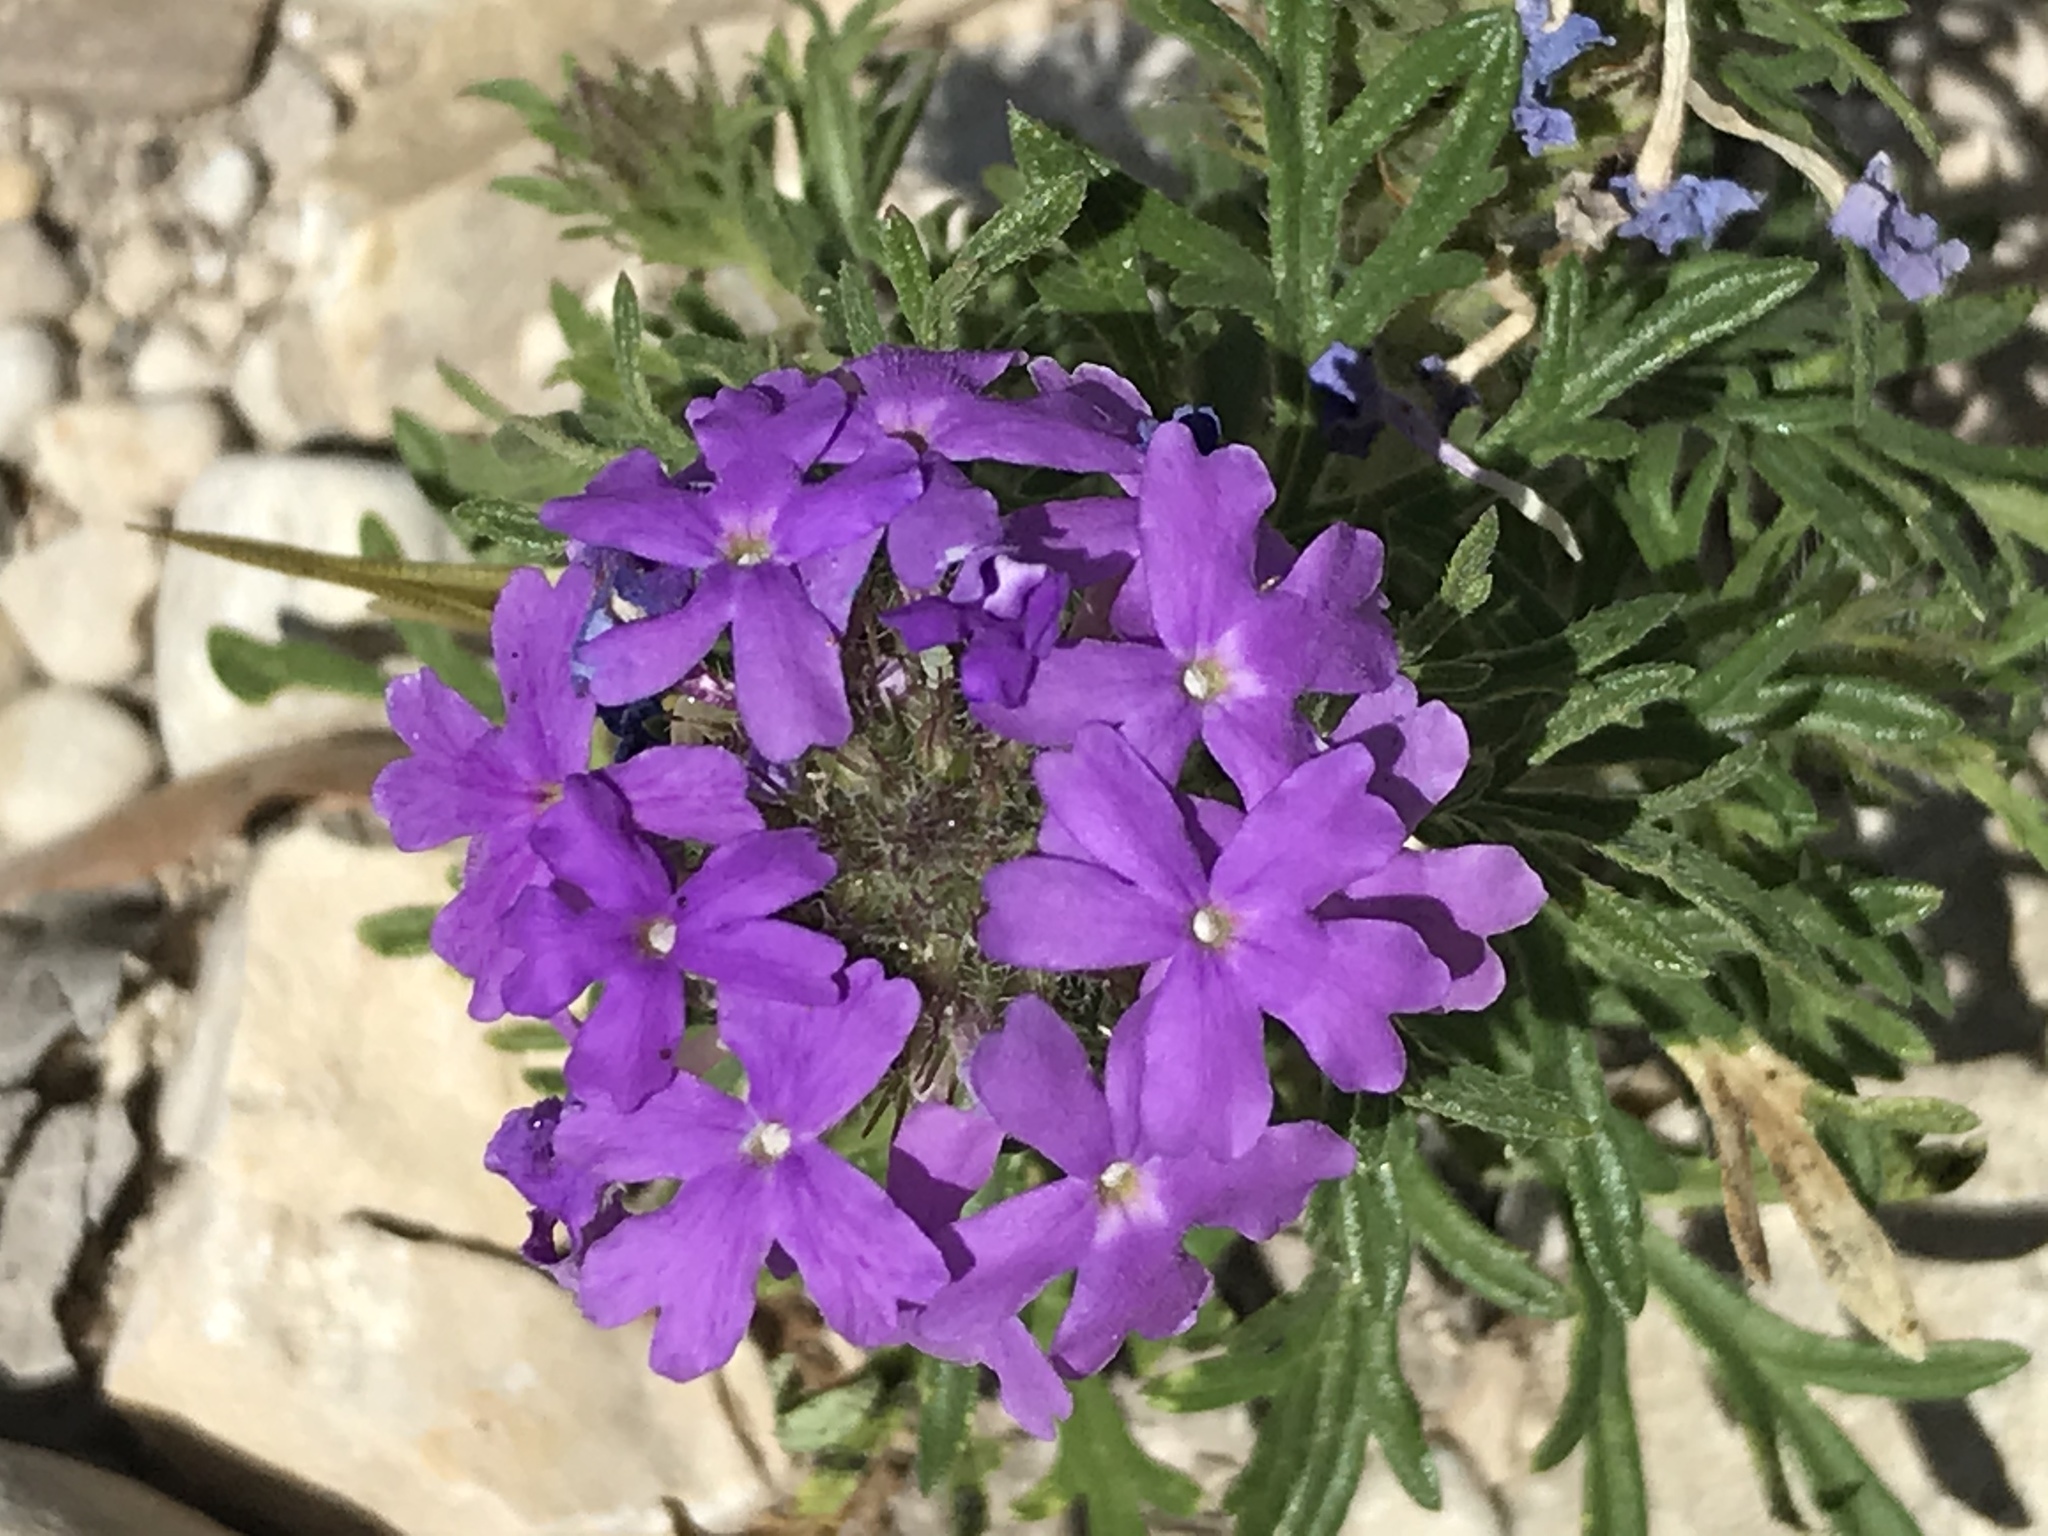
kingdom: Plantae
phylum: Tracheophyta
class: Magnoliopsida
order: Lamiales
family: Verbenaceae
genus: Verbena
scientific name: Verbena bipinnatifida
